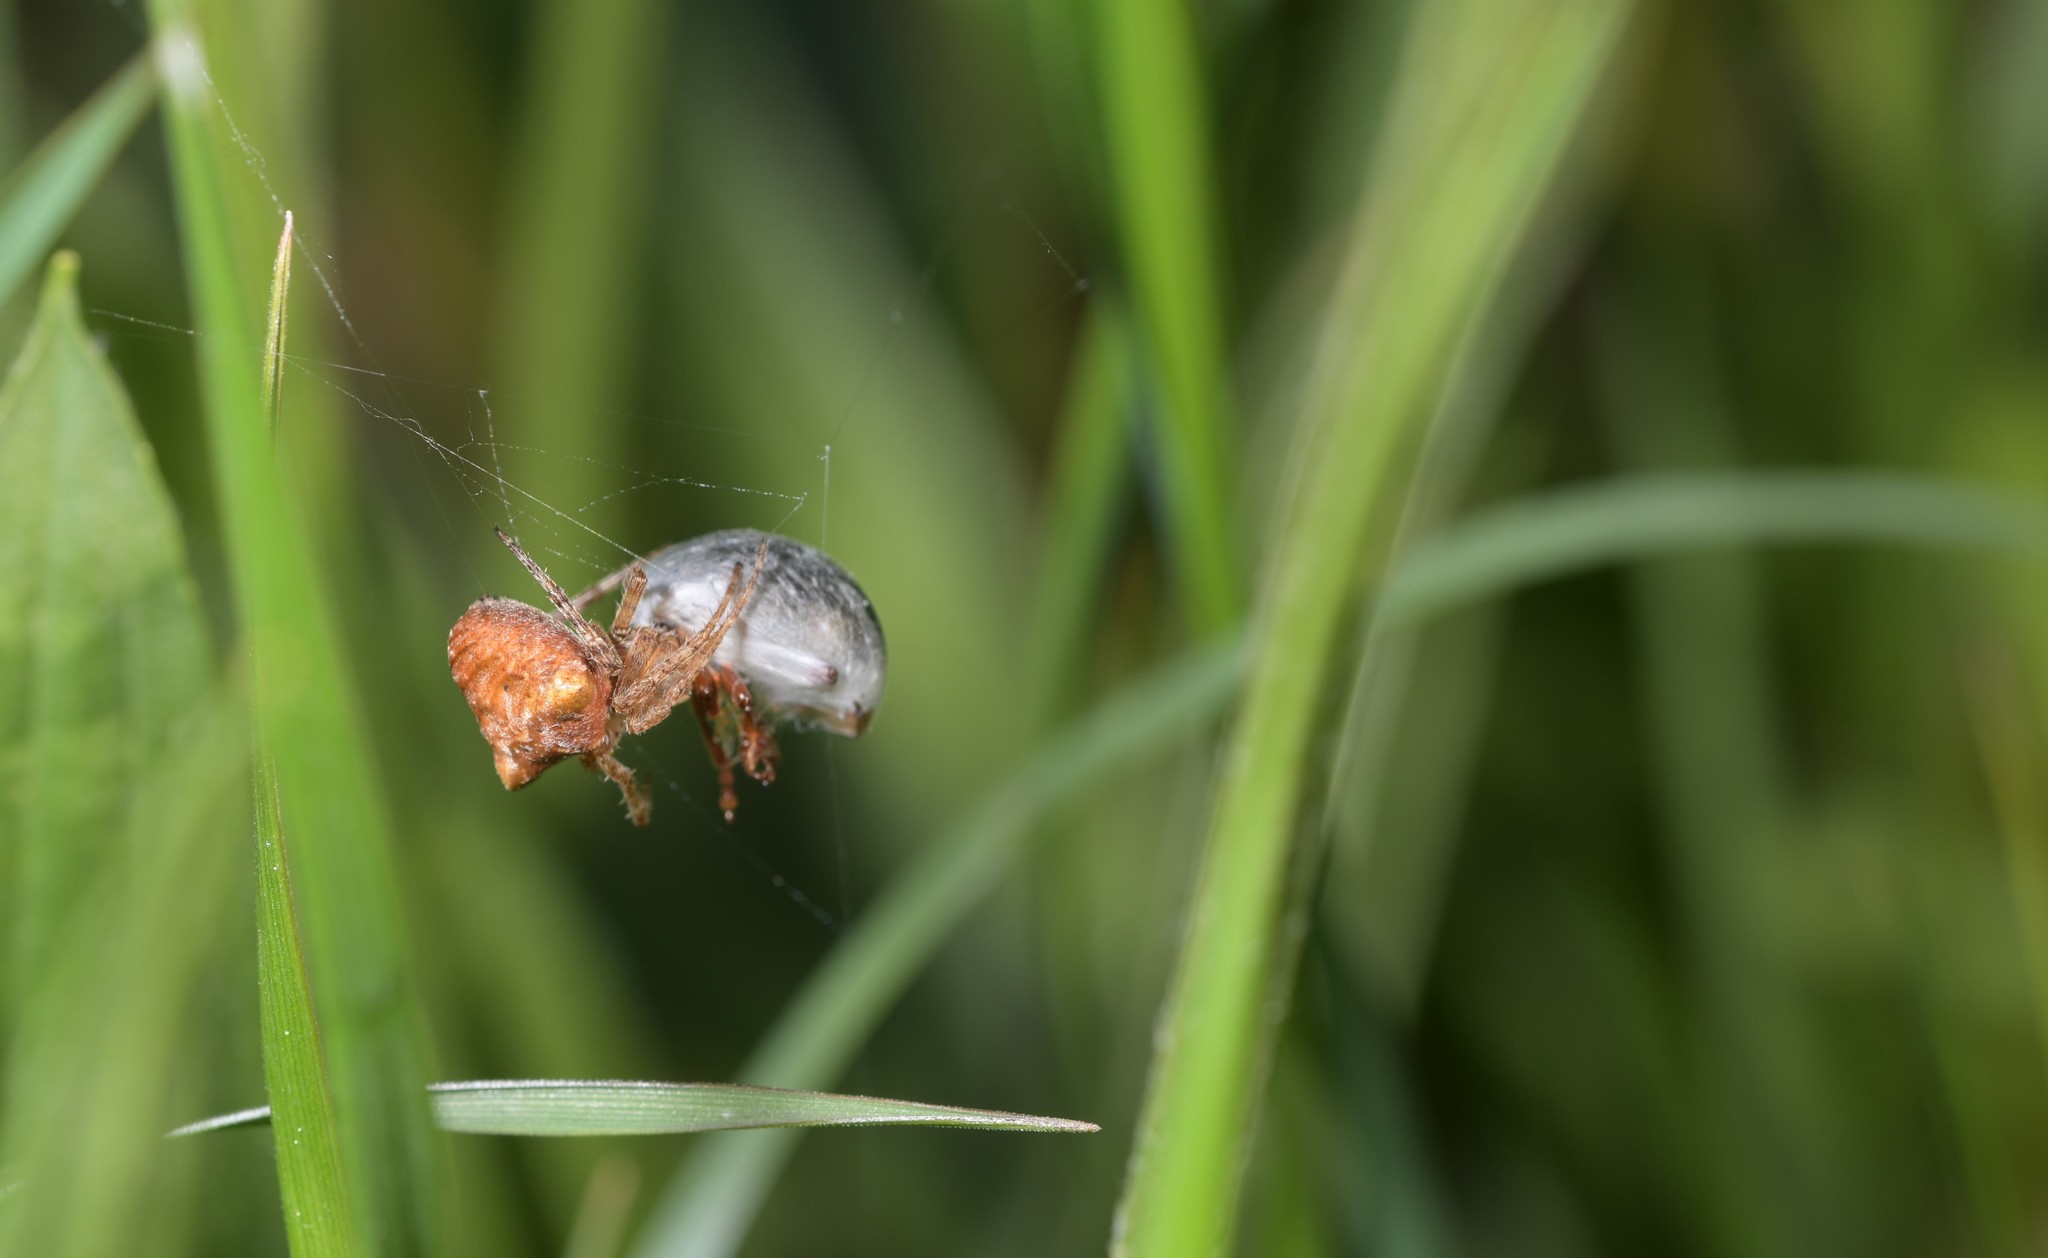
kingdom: Animalia
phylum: Arthropoda
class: Arachnida
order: Araneae
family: Araneidae
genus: Gibbaranea
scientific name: Gibbaranea bituberculata
